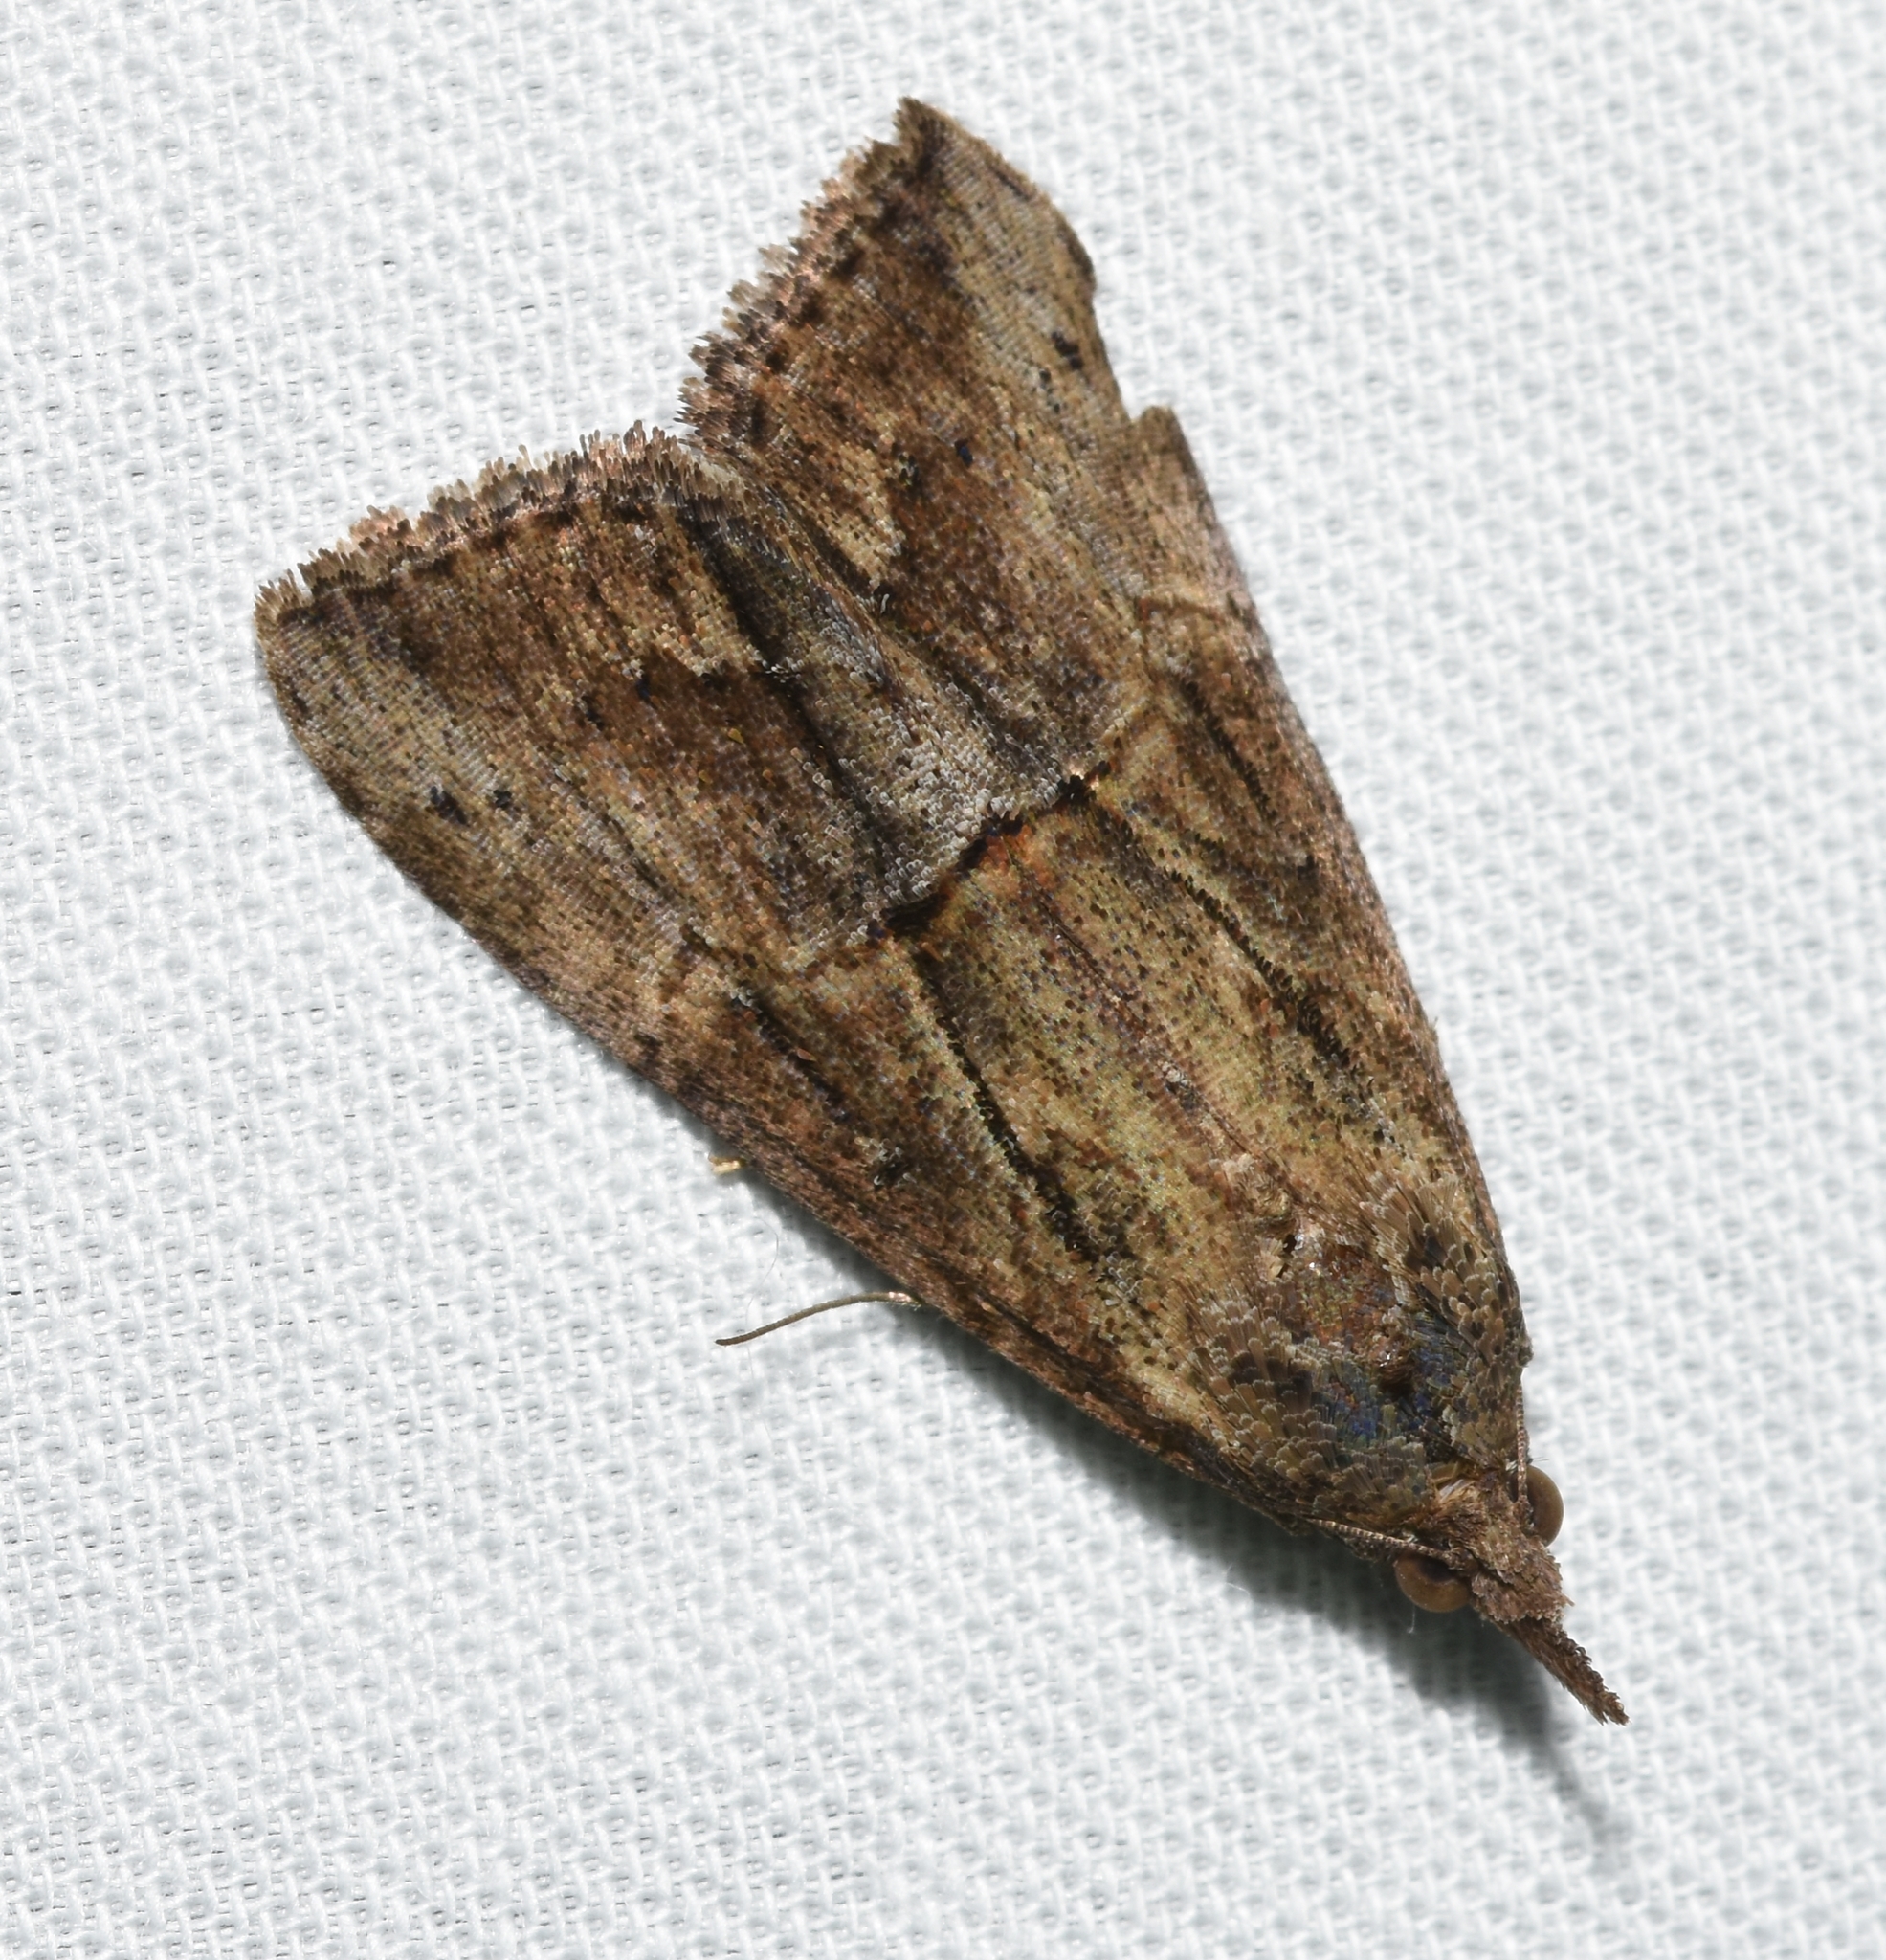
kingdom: Animalia
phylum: Arthropoda
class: Insecta
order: Lepidoptera
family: Erebidae
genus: Hypena
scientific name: Hypena scabra
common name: Green cloverworm
